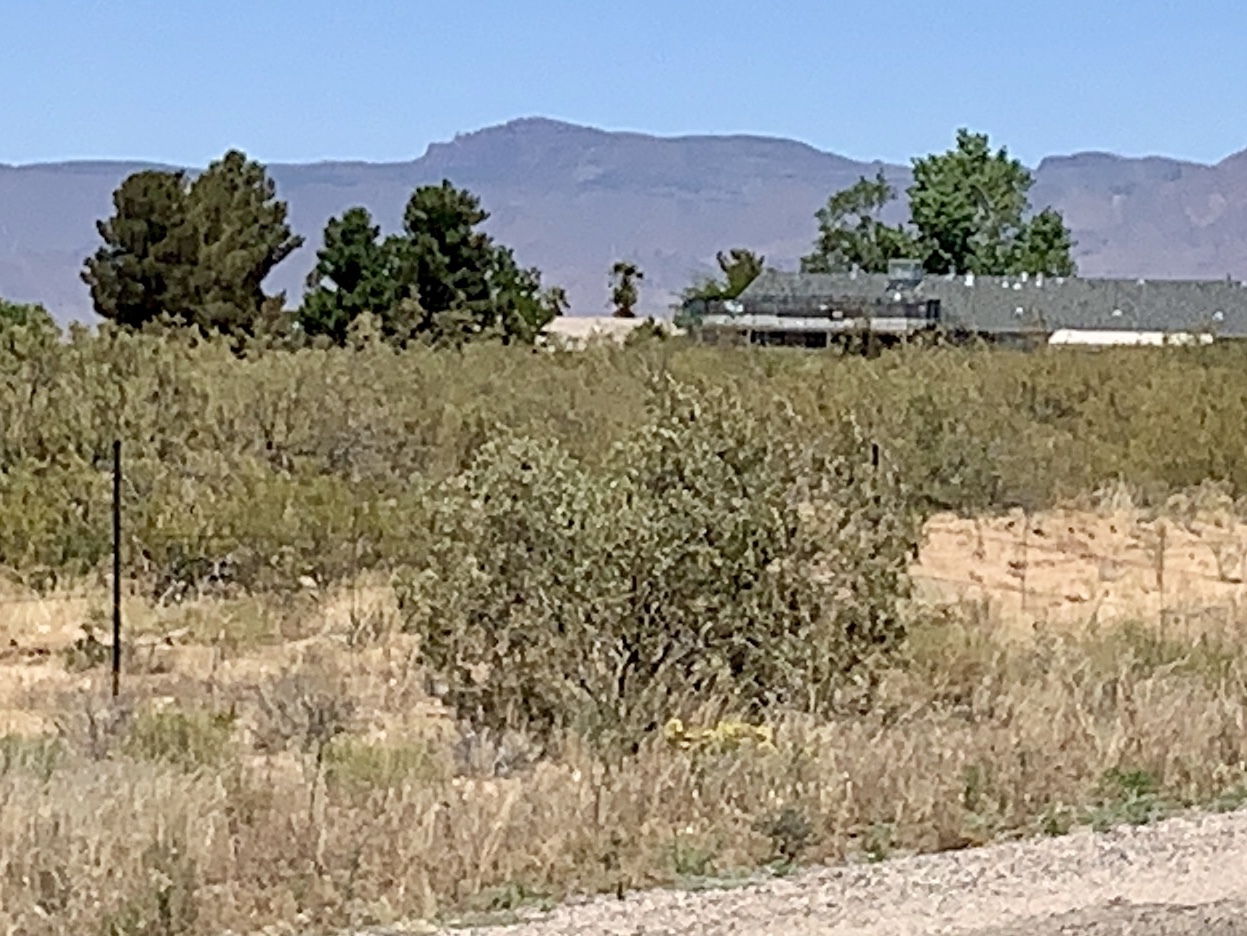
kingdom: Plantae
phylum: Tracheophyta
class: Magnoliopsida
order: Zygophyllales
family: Zygophyllaceae
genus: Larrea
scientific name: Larrea tridentata
